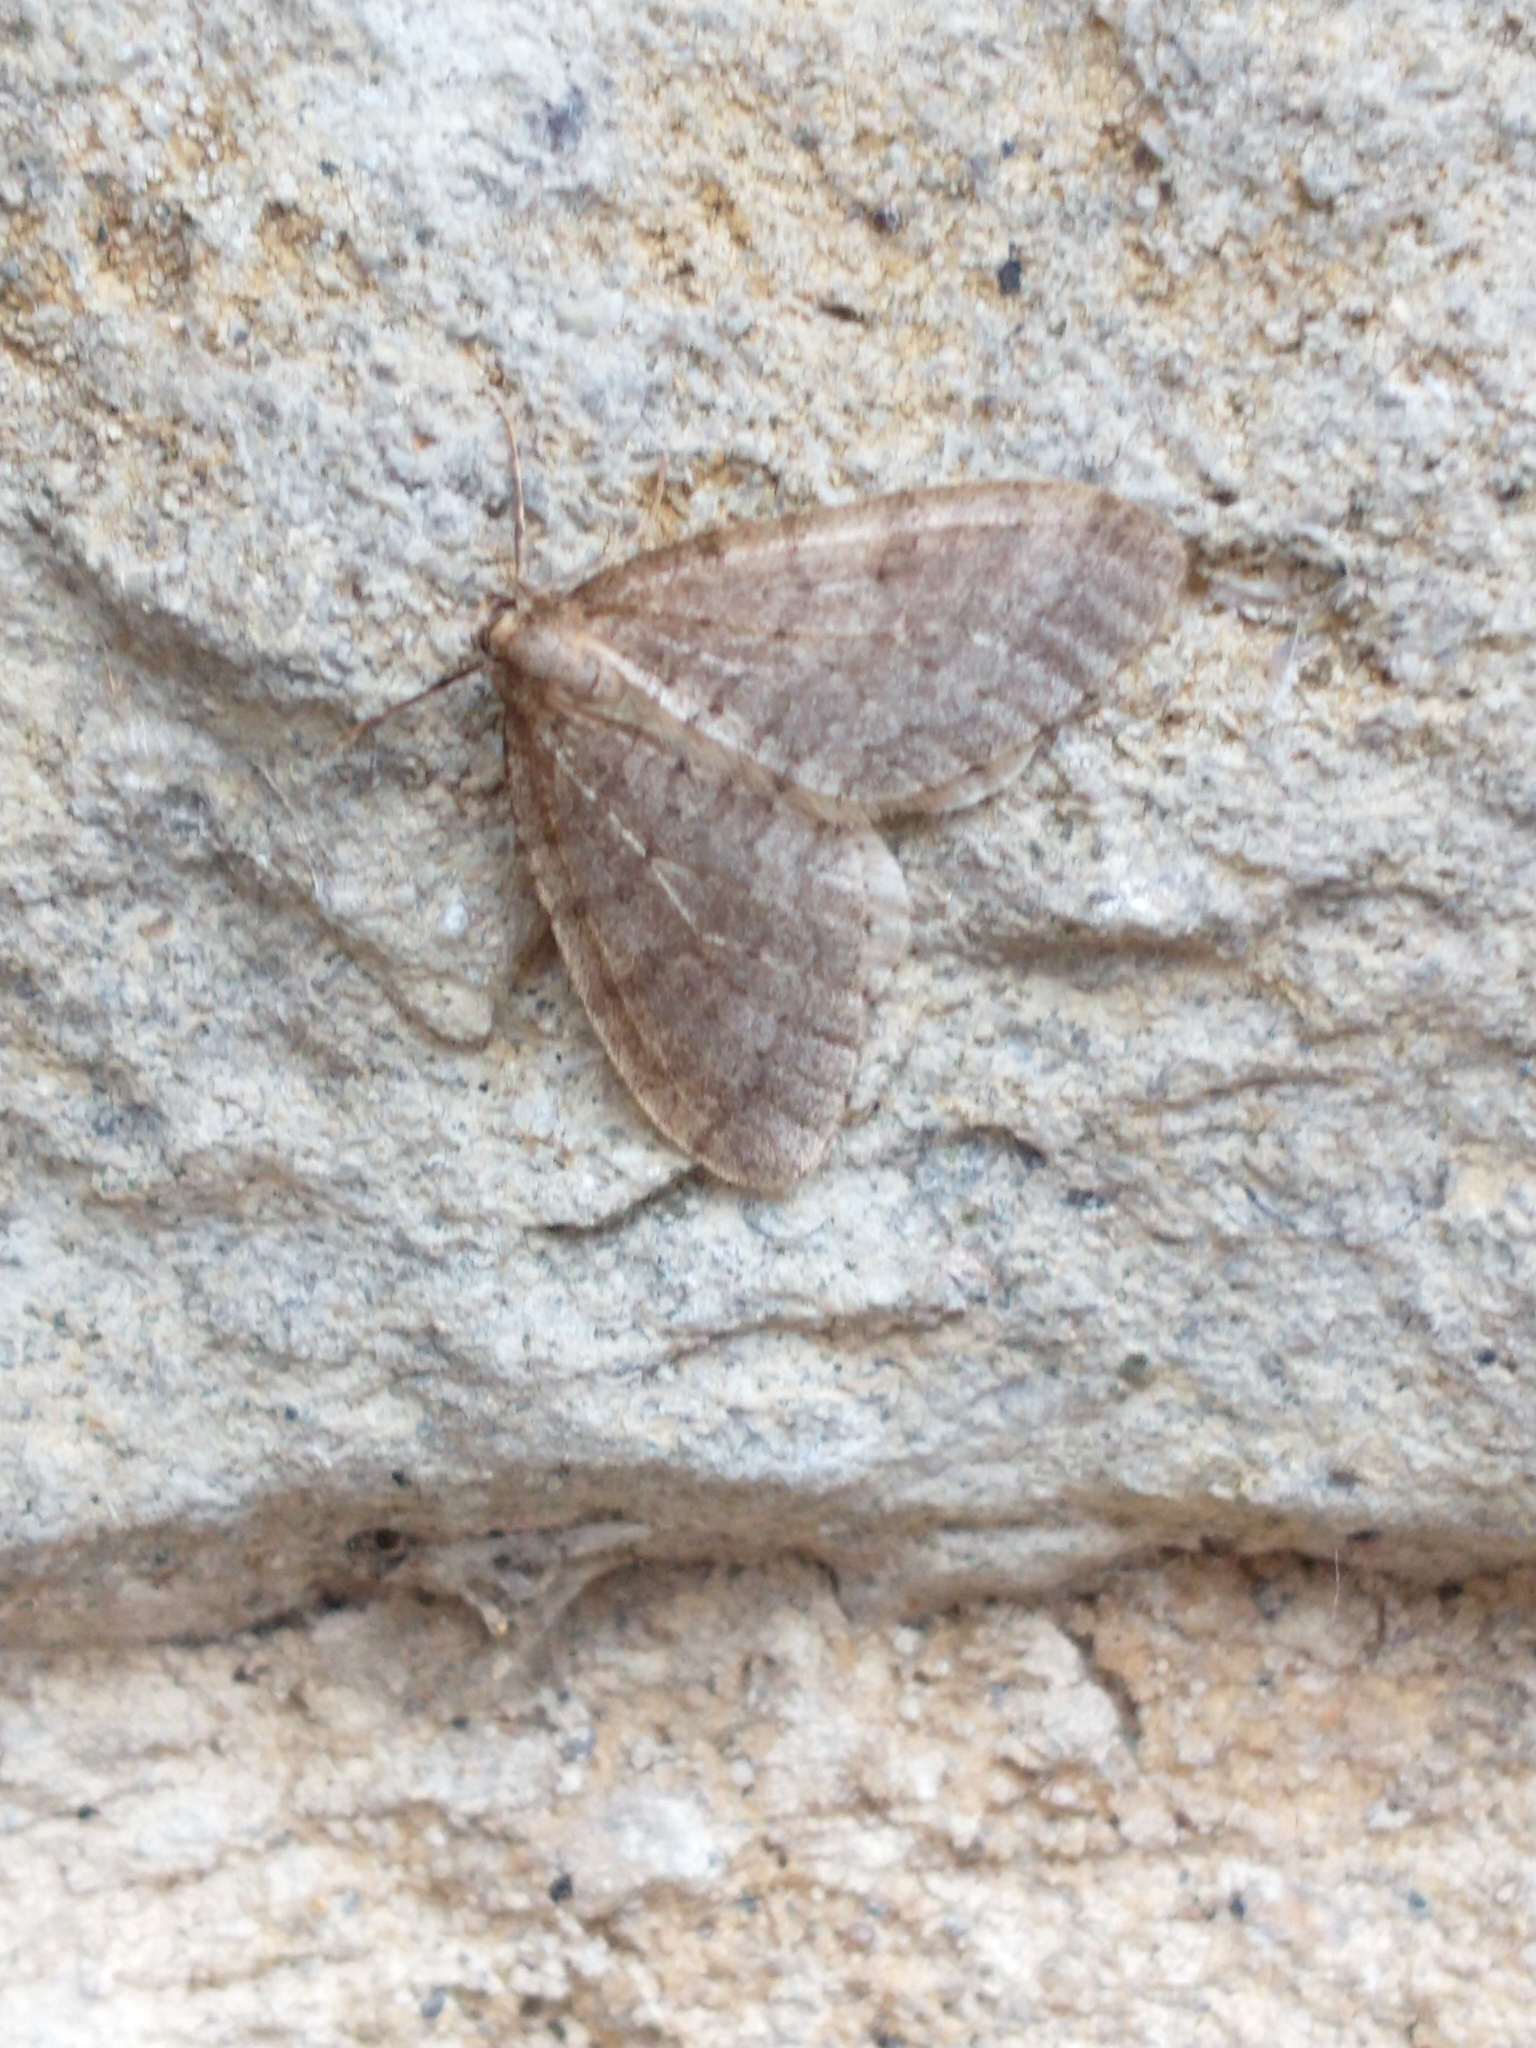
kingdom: Animalia
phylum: Arthropoda
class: Insecta
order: Lepidoptera
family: Geometridae
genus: Operophtera
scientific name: Operophtera
